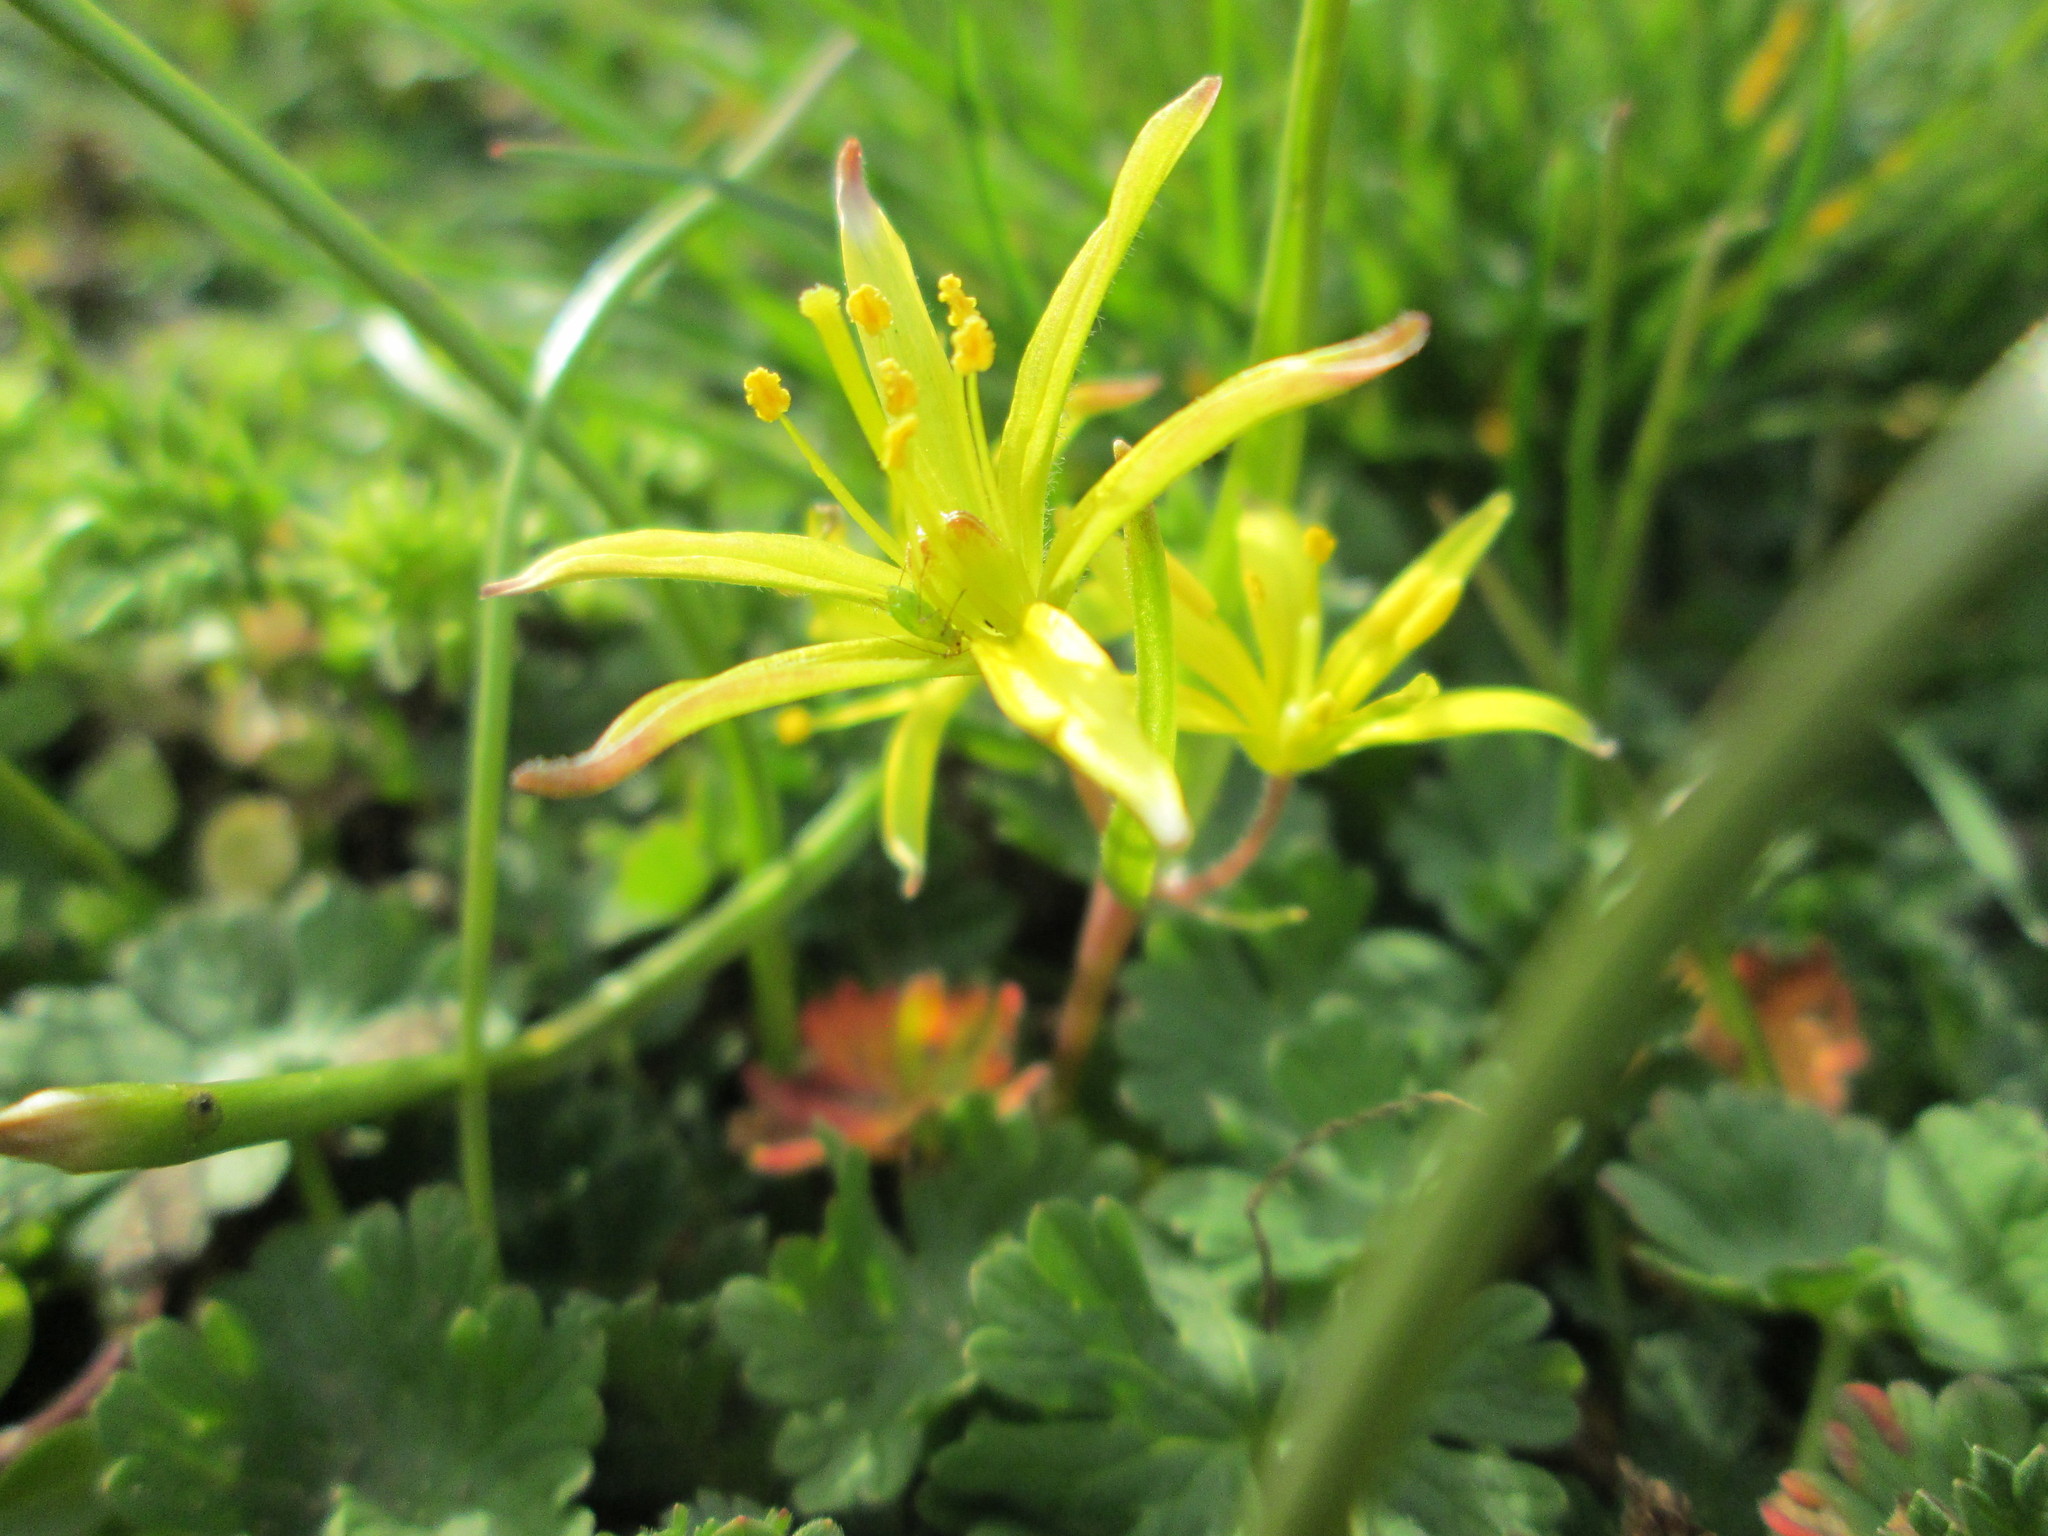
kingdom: Plantae
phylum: Tracheophyta
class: Liliopsida
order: Liliales
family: Liliaceae
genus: Gagea
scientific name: Gagea villosa
